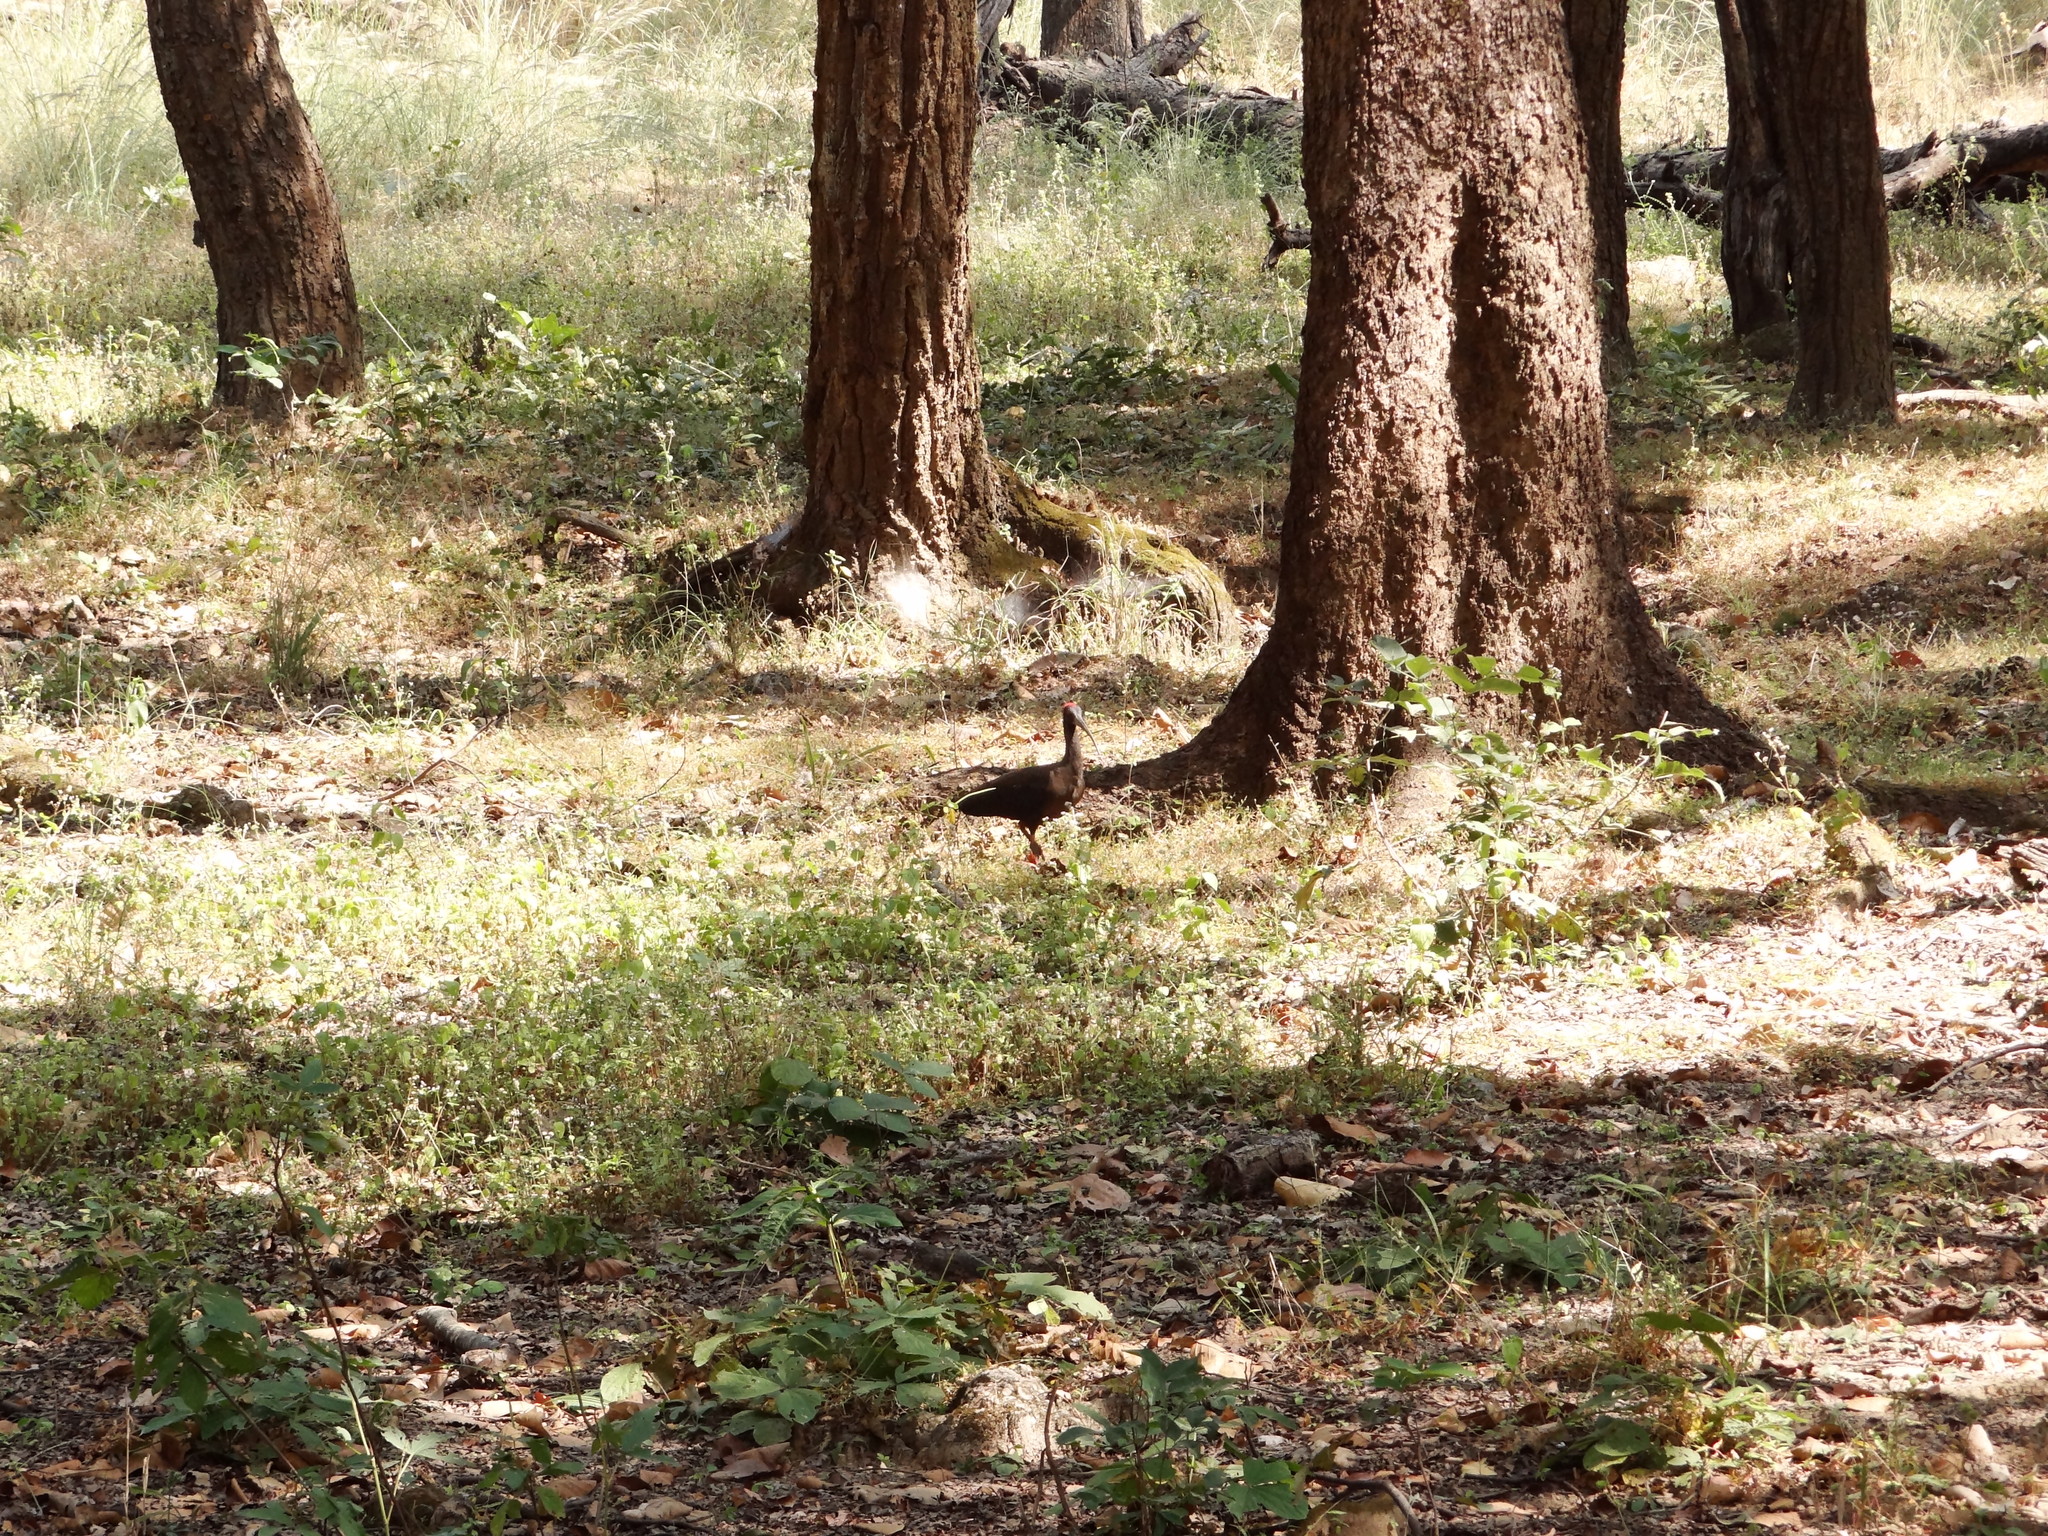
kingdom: Animalia
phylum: Chordata
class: Aves
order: Pelecaniformes
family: Threskiornithidae
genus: Pseudibis
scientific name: Pseudibis papillosa
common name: Red-naped ibis
